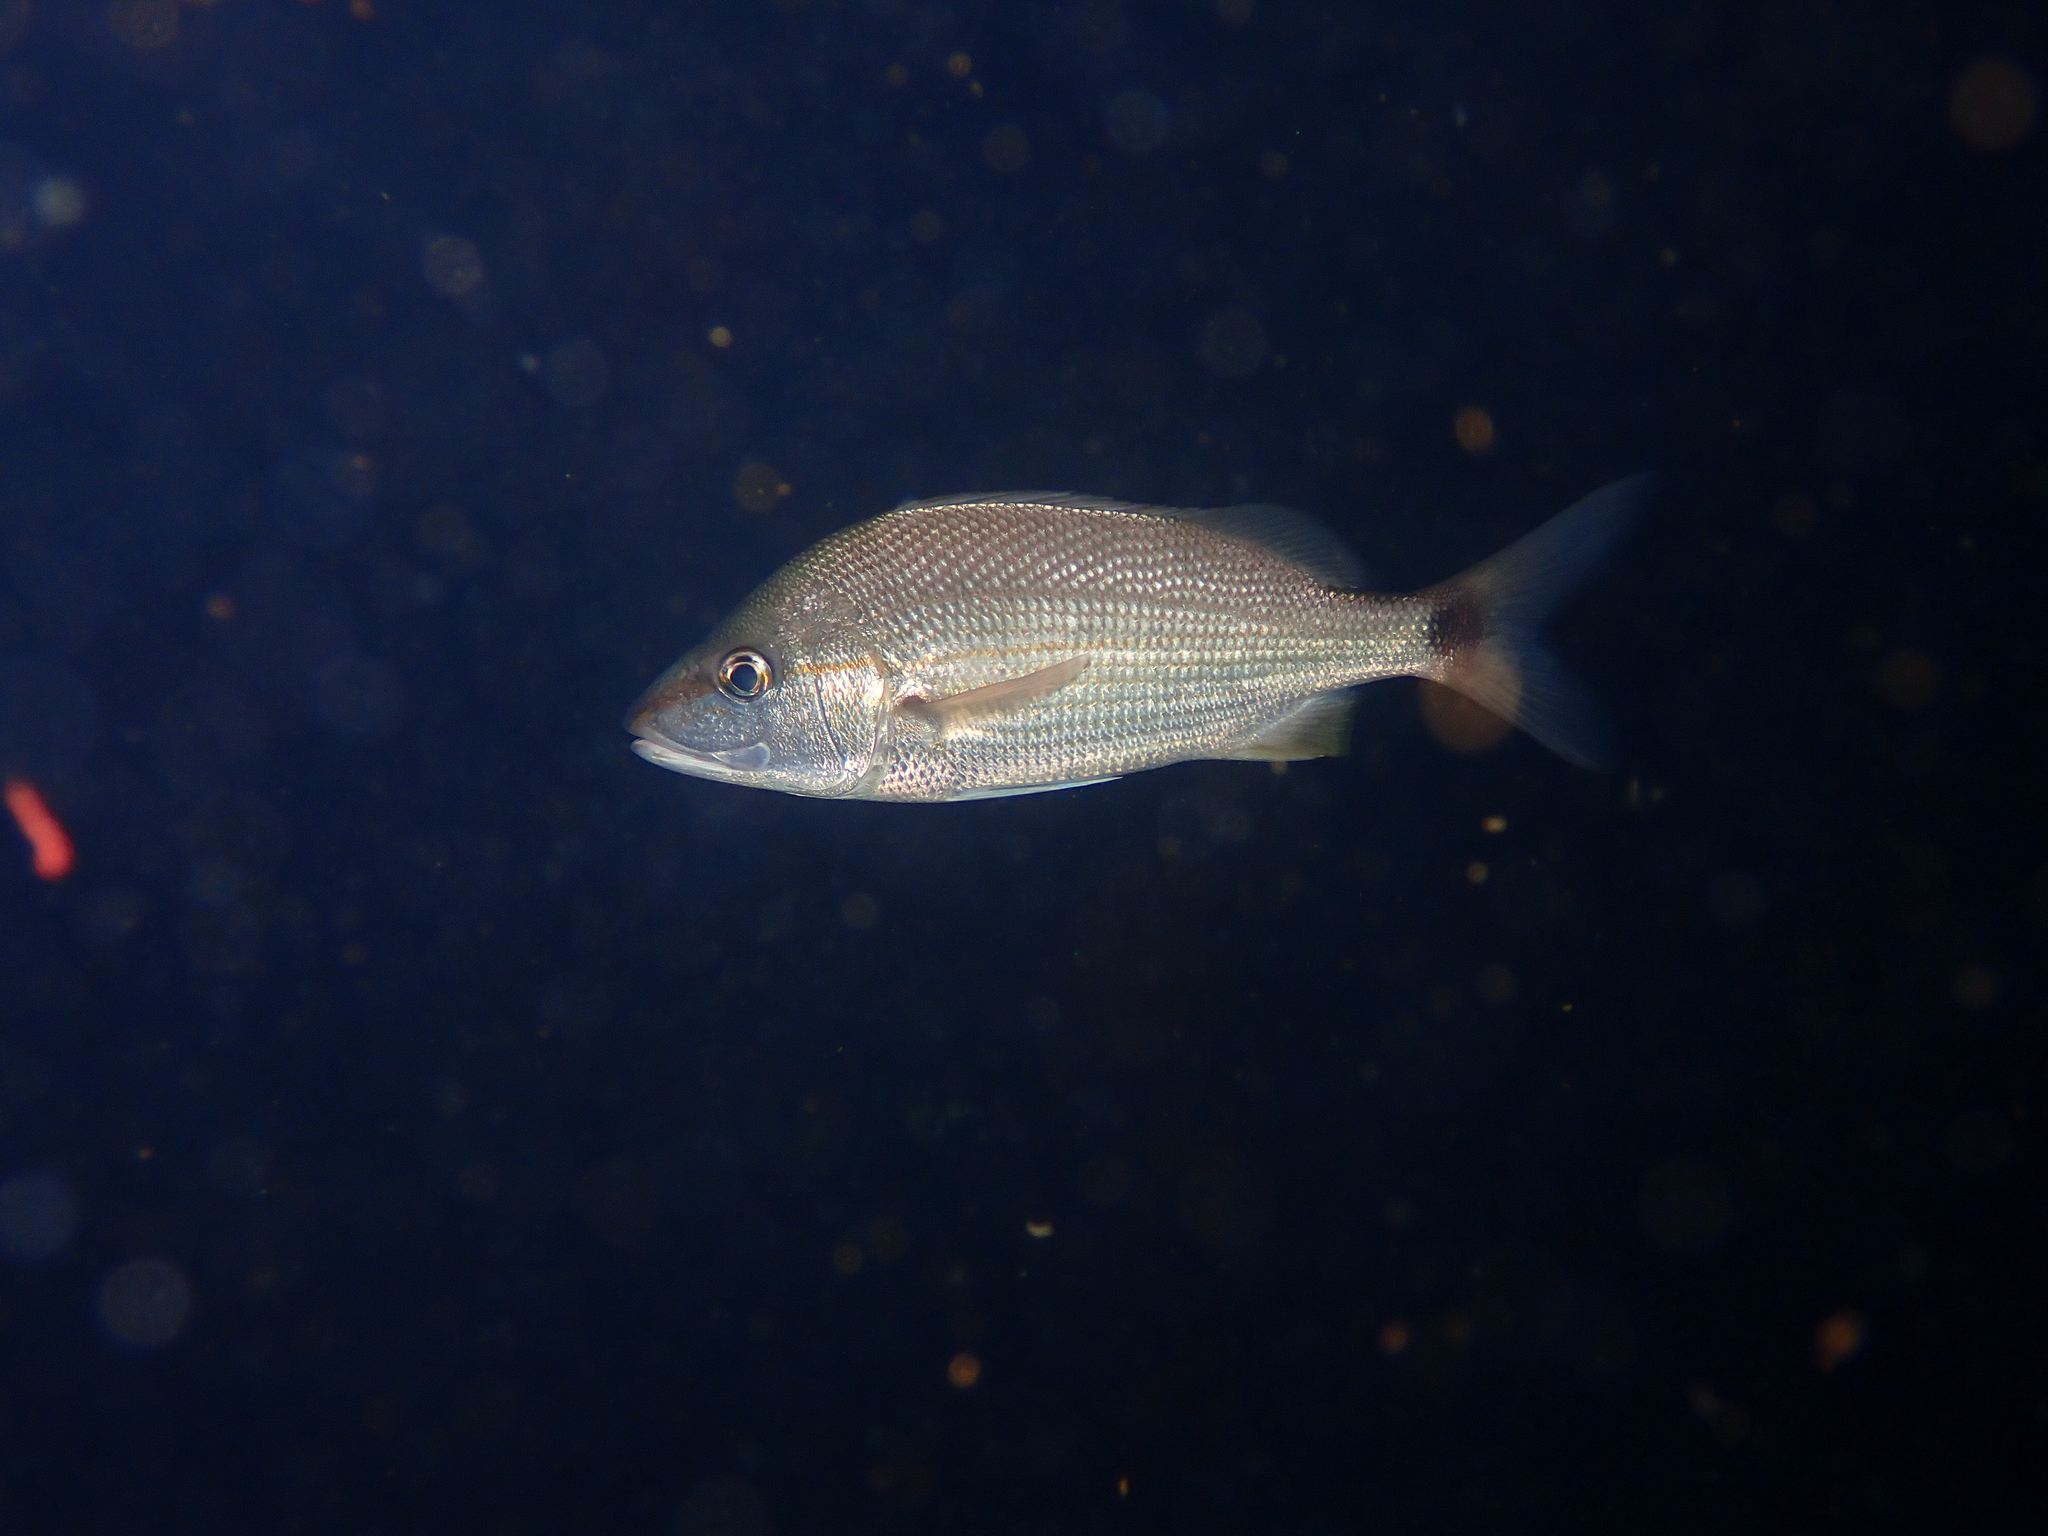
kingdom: Animalia
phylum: Chordata
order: Perciformes
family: Haemulidae
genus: Haemulon
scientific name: Haemulon aurolineatum
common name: Tomtate
